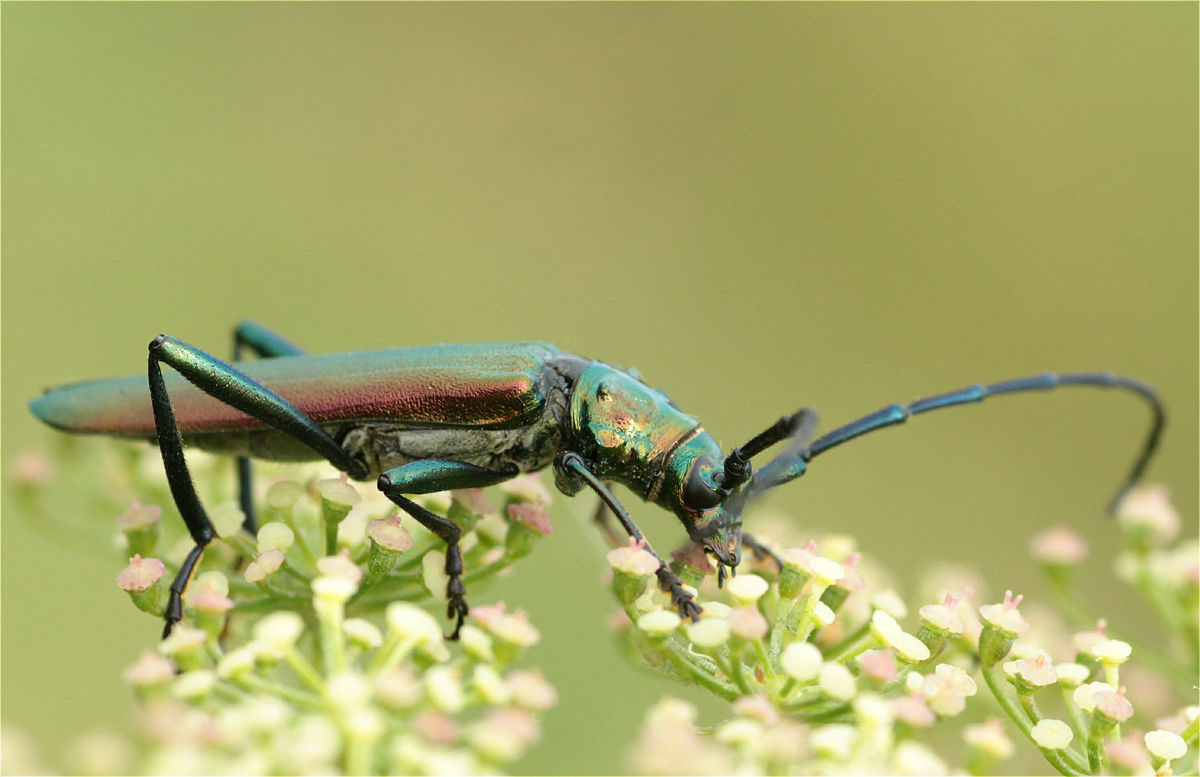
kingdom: Animalia
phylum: Arthropoda
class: Insecta
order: Coleoptera
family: Cerambycidae
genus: Aromia
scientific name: Aromia moschata
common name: Musk beetle
